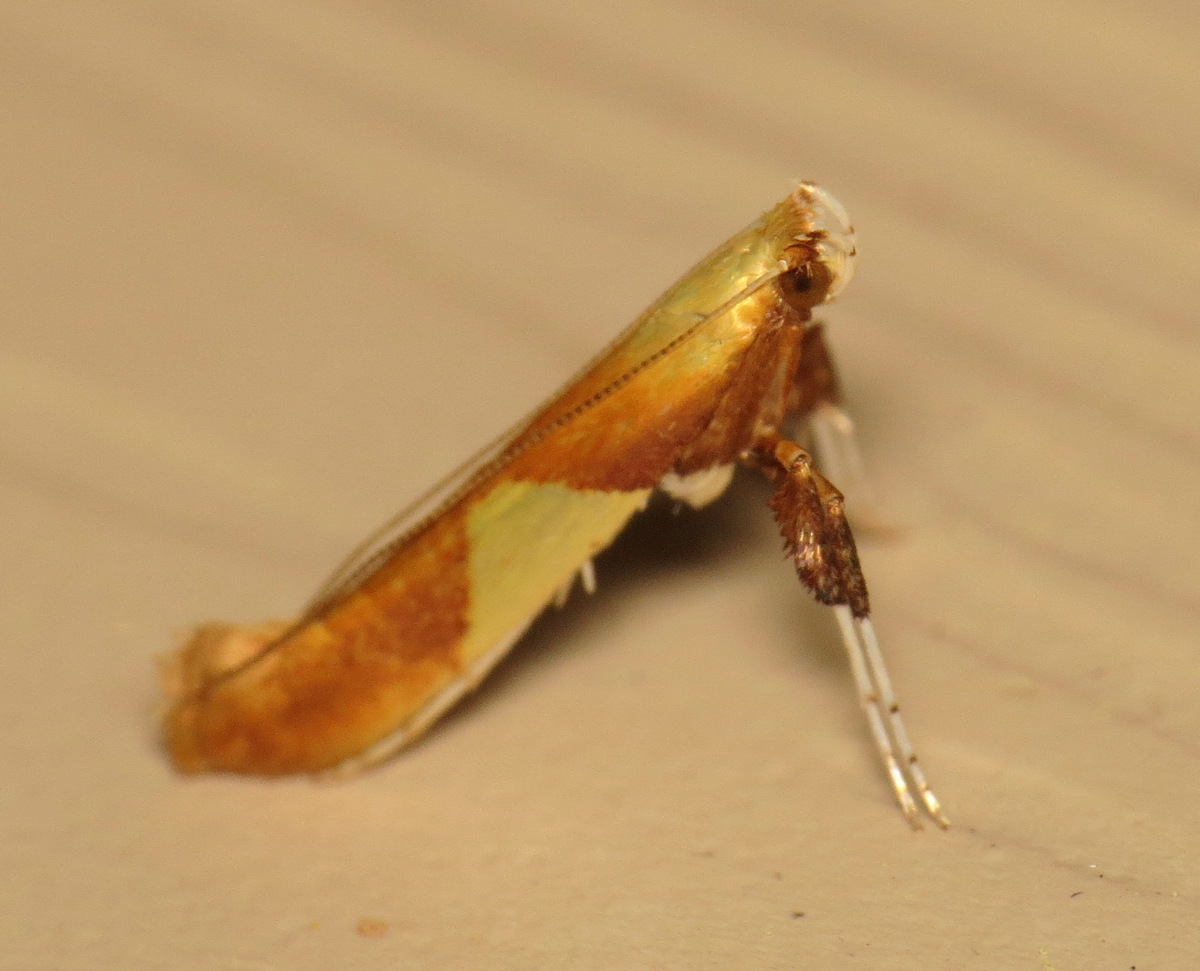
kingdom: Animalia
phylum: Arthropoda
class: Insecta
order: Lepidoptera
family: Gracillariidae
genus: Caloptilia
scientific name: Caloptilia packardella
